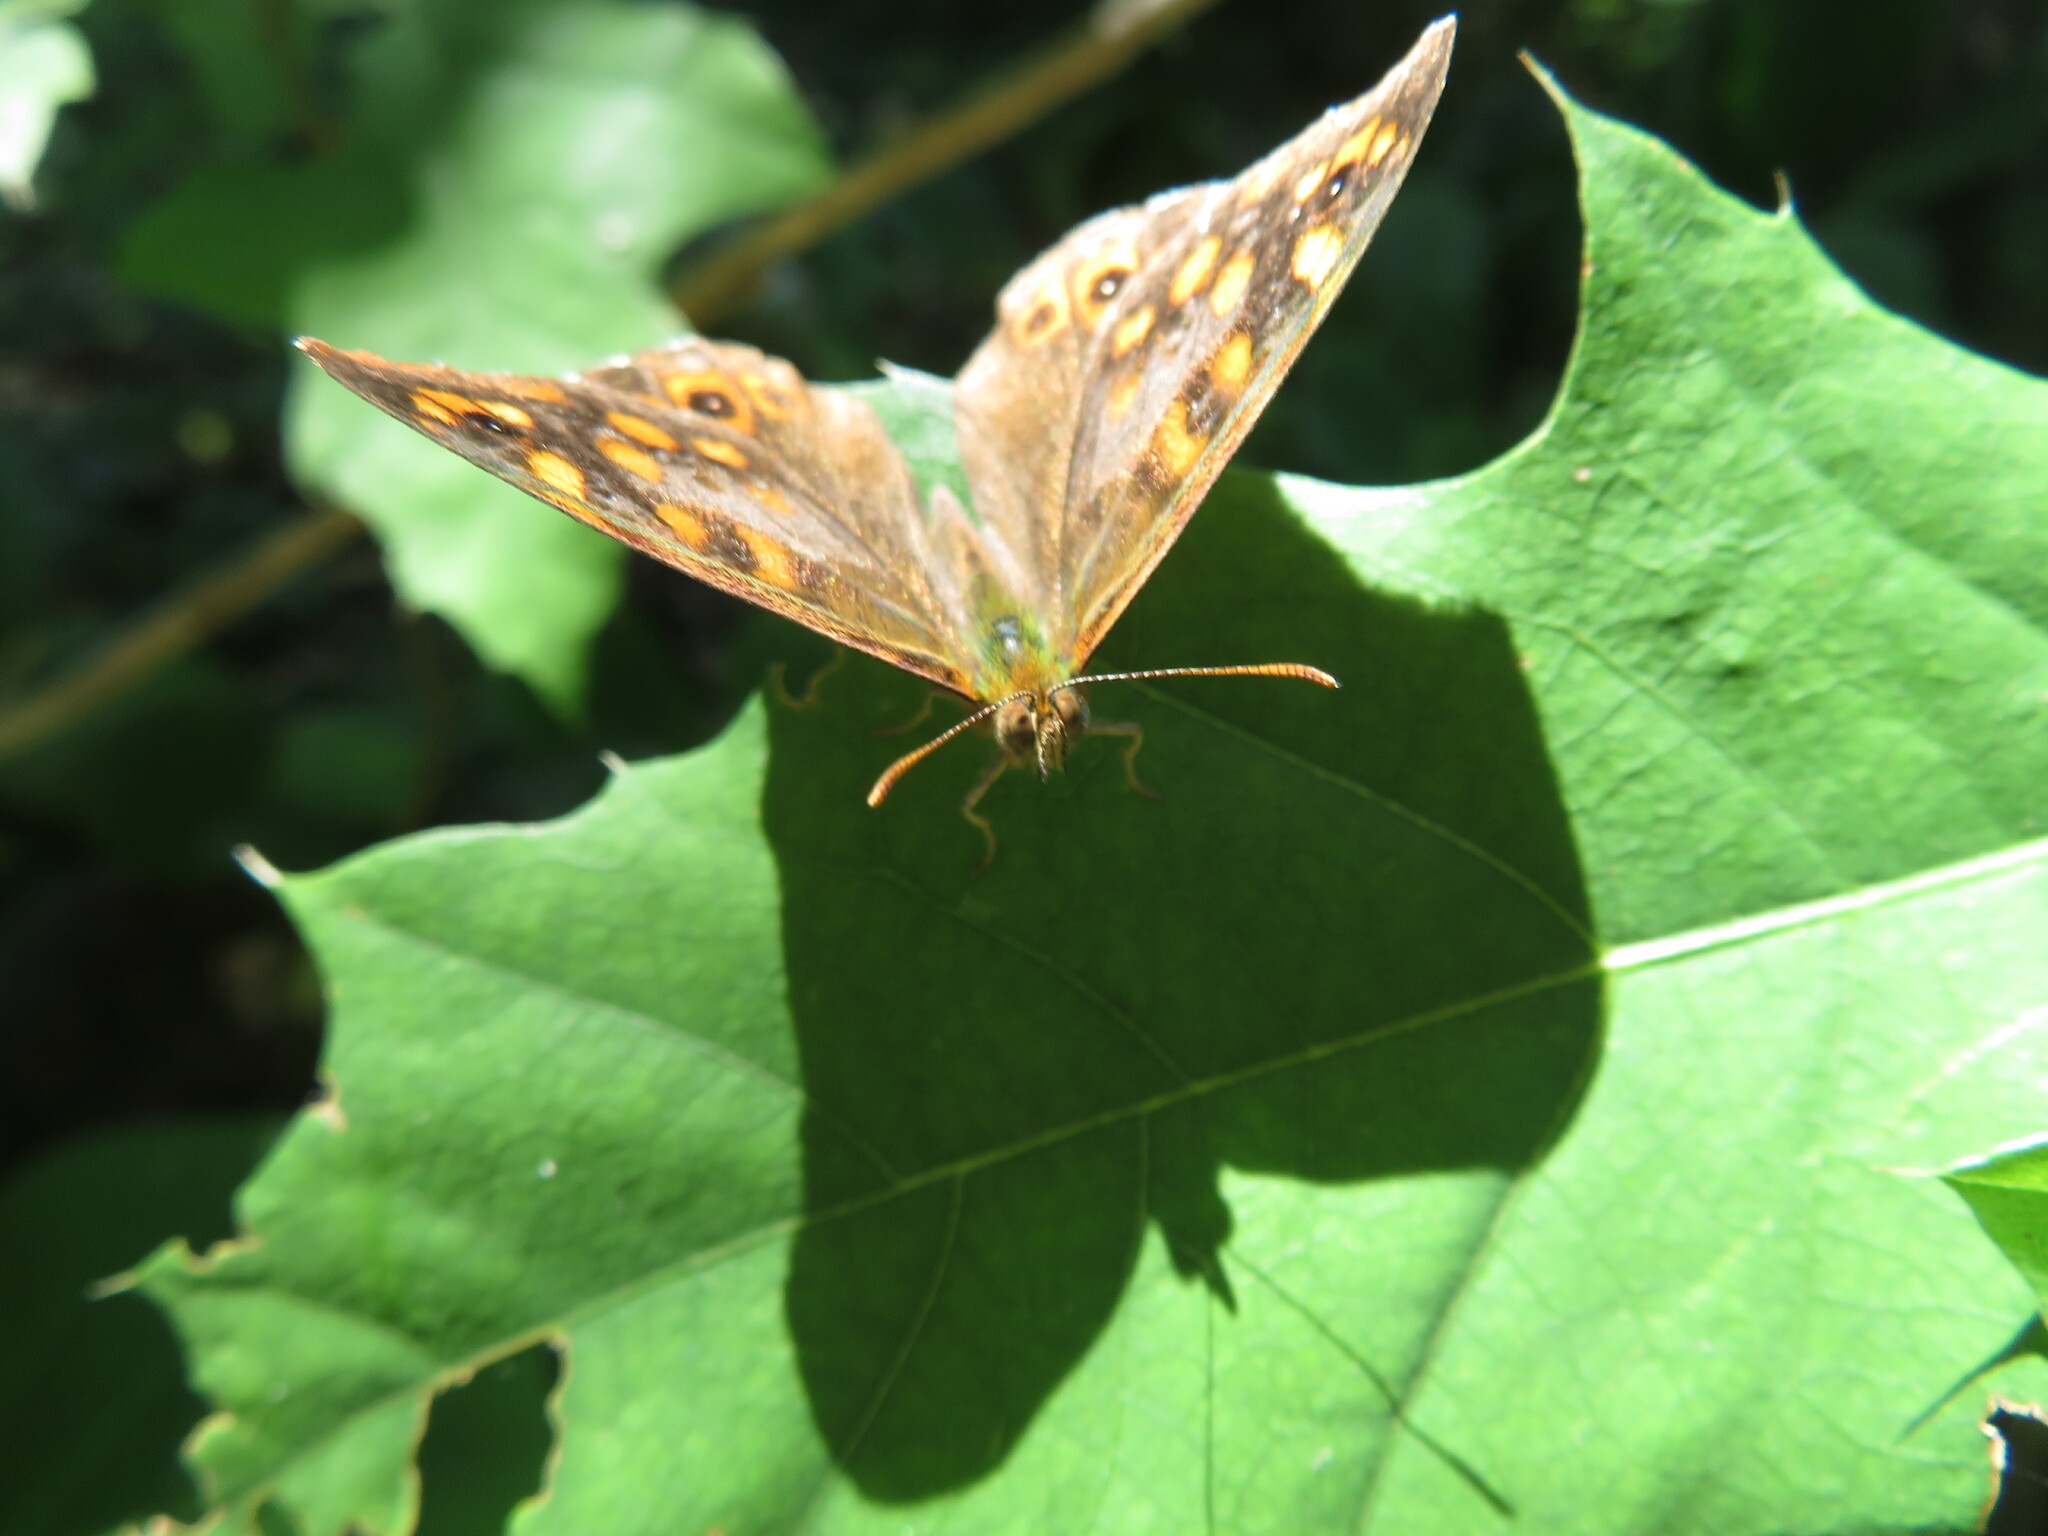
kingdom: Animalia
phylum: Arthropoda
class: Insecta
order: Lepidoptera
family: Nymphalidae
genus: Pararge
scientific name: Pararge aegeria
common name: Speckled wood
